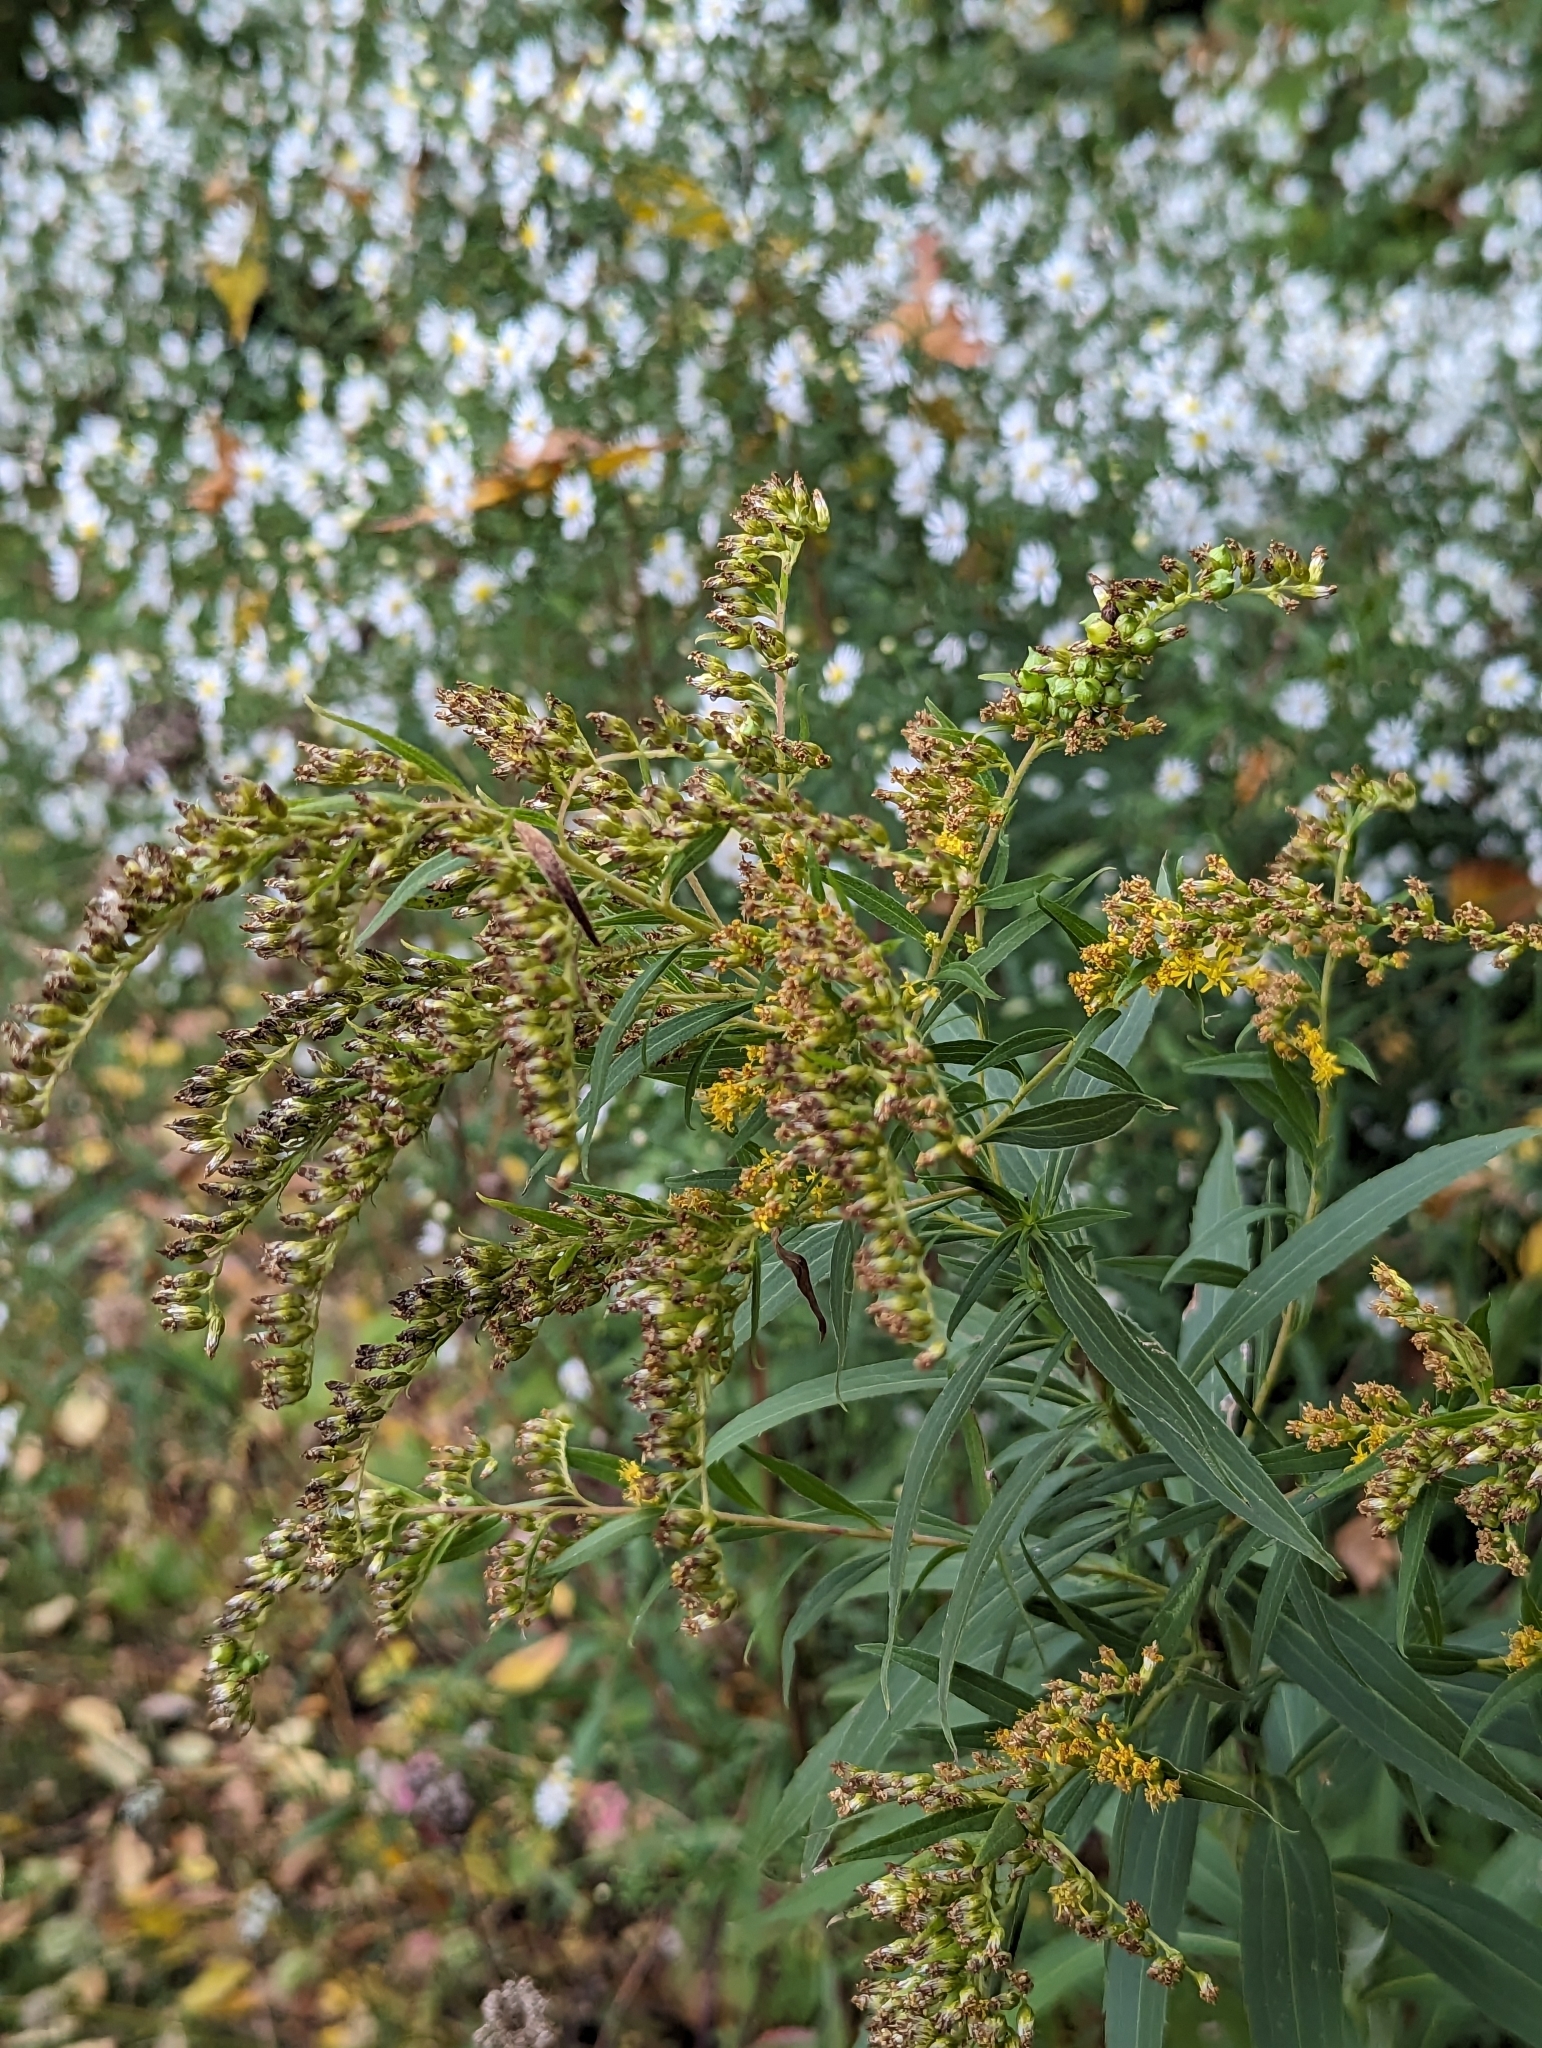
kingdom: Plantae
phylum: Tracheophyta
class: Magnoliopsida
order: Asterales
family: Asteraceae
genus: Solidago
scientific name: Solidago gigantea
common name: Giant goldenrod
